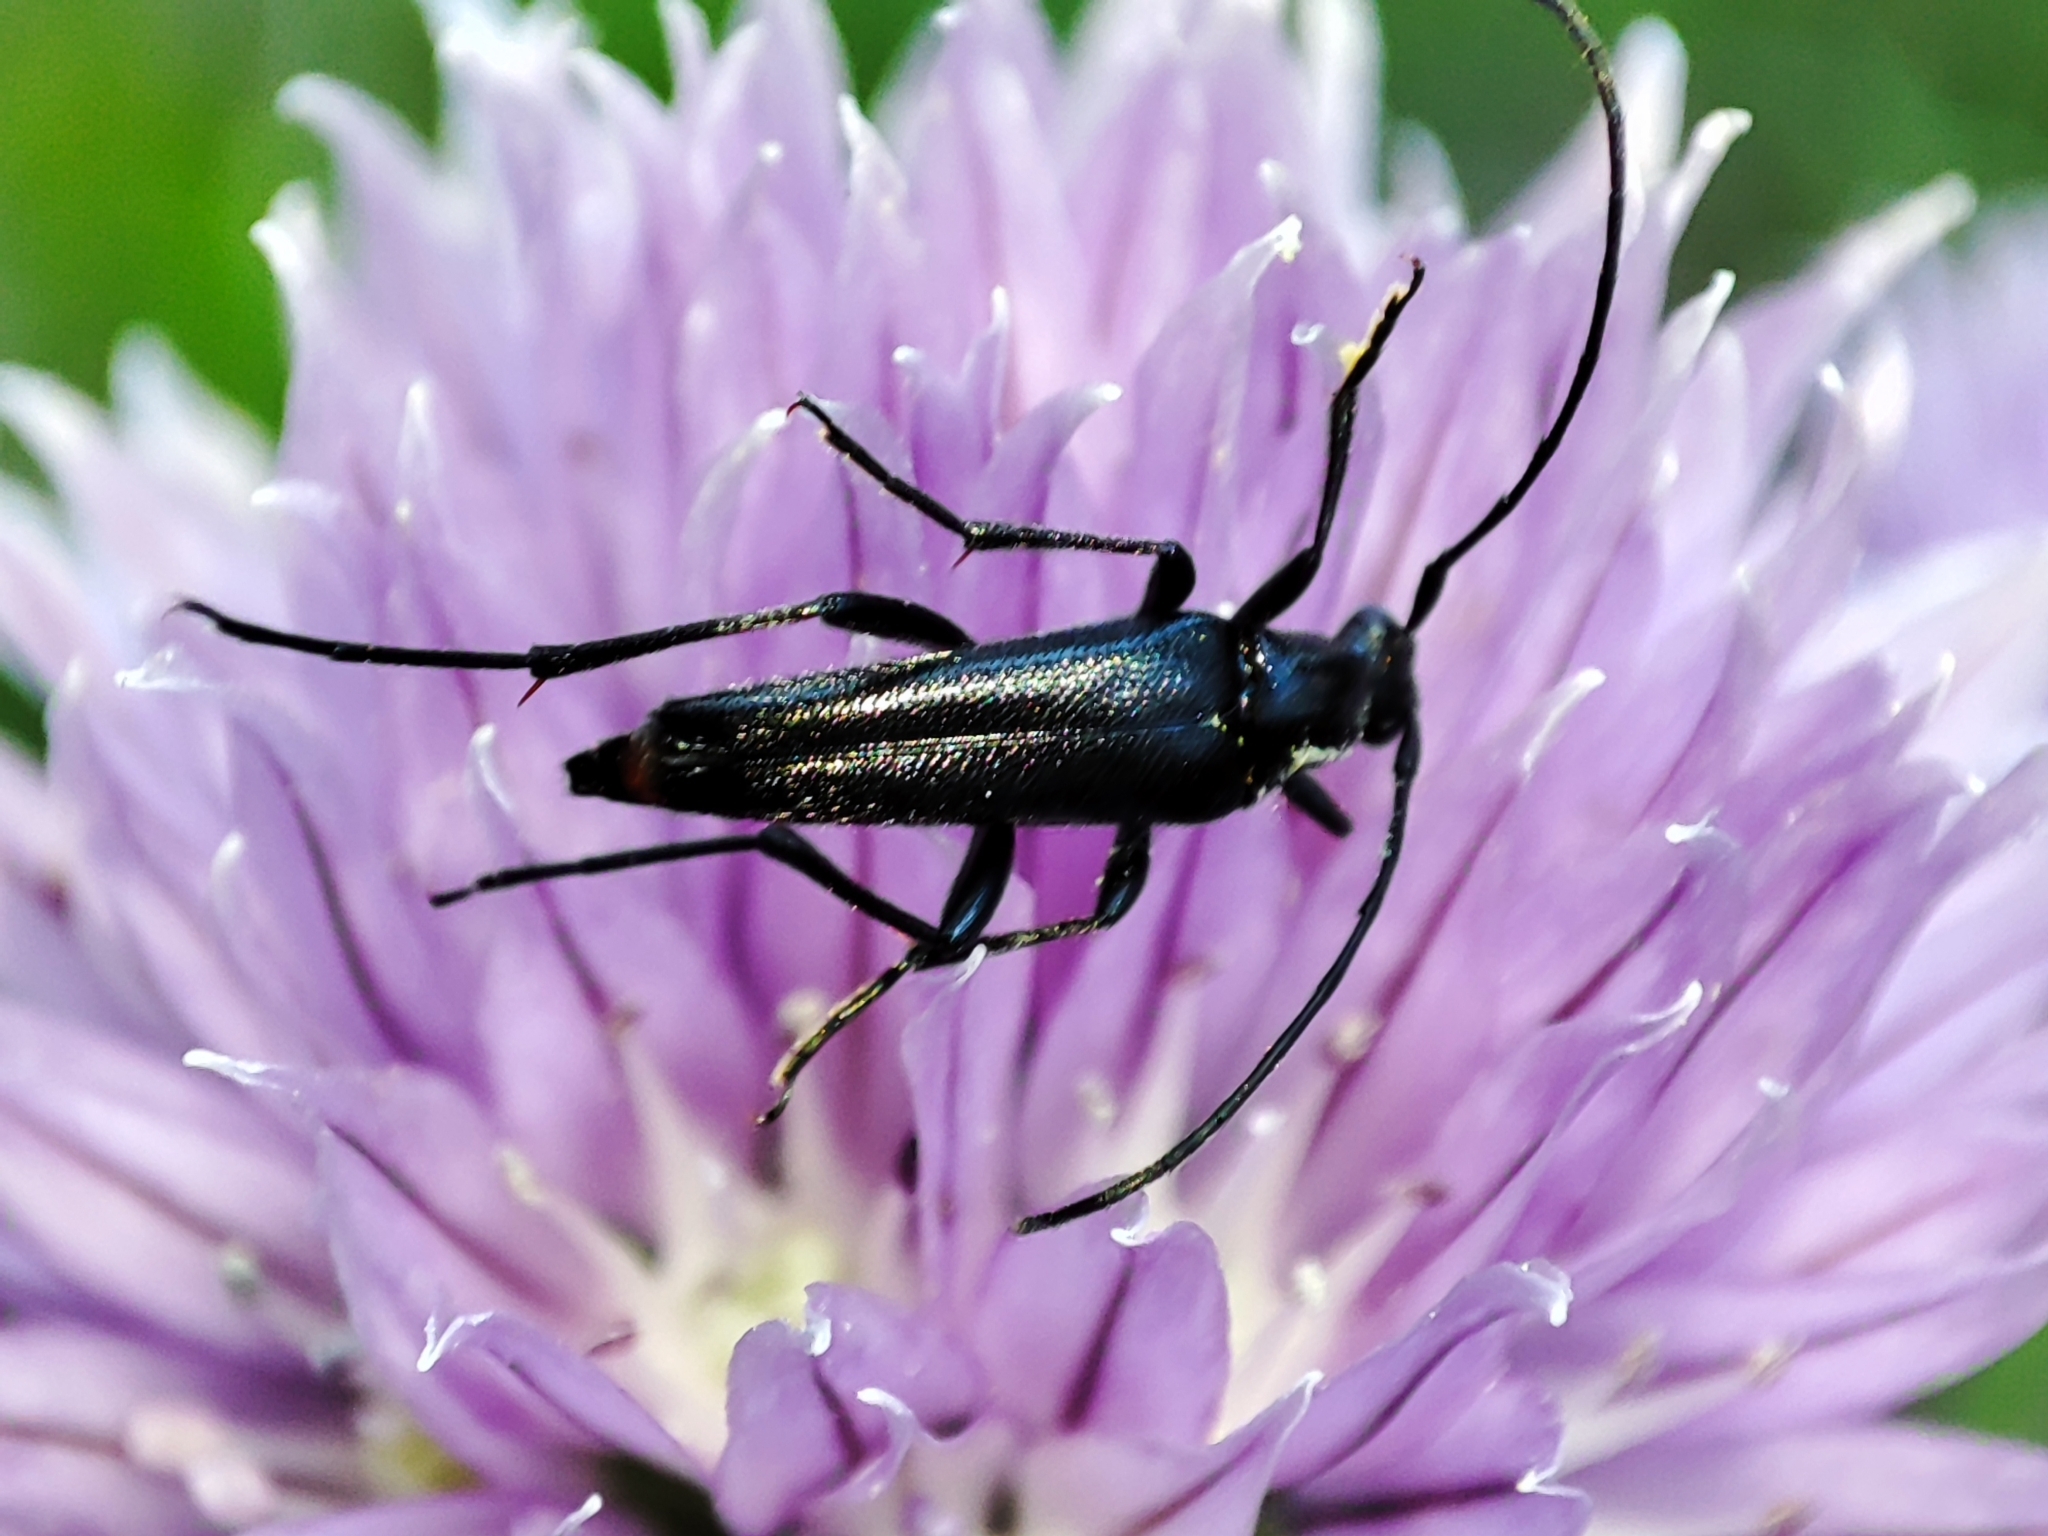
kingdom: Animalia
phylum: Arthropoda
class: Insecta
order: Coleoptera
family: Cerambycidae
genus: Stenurella
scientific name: Stenurella nigra
